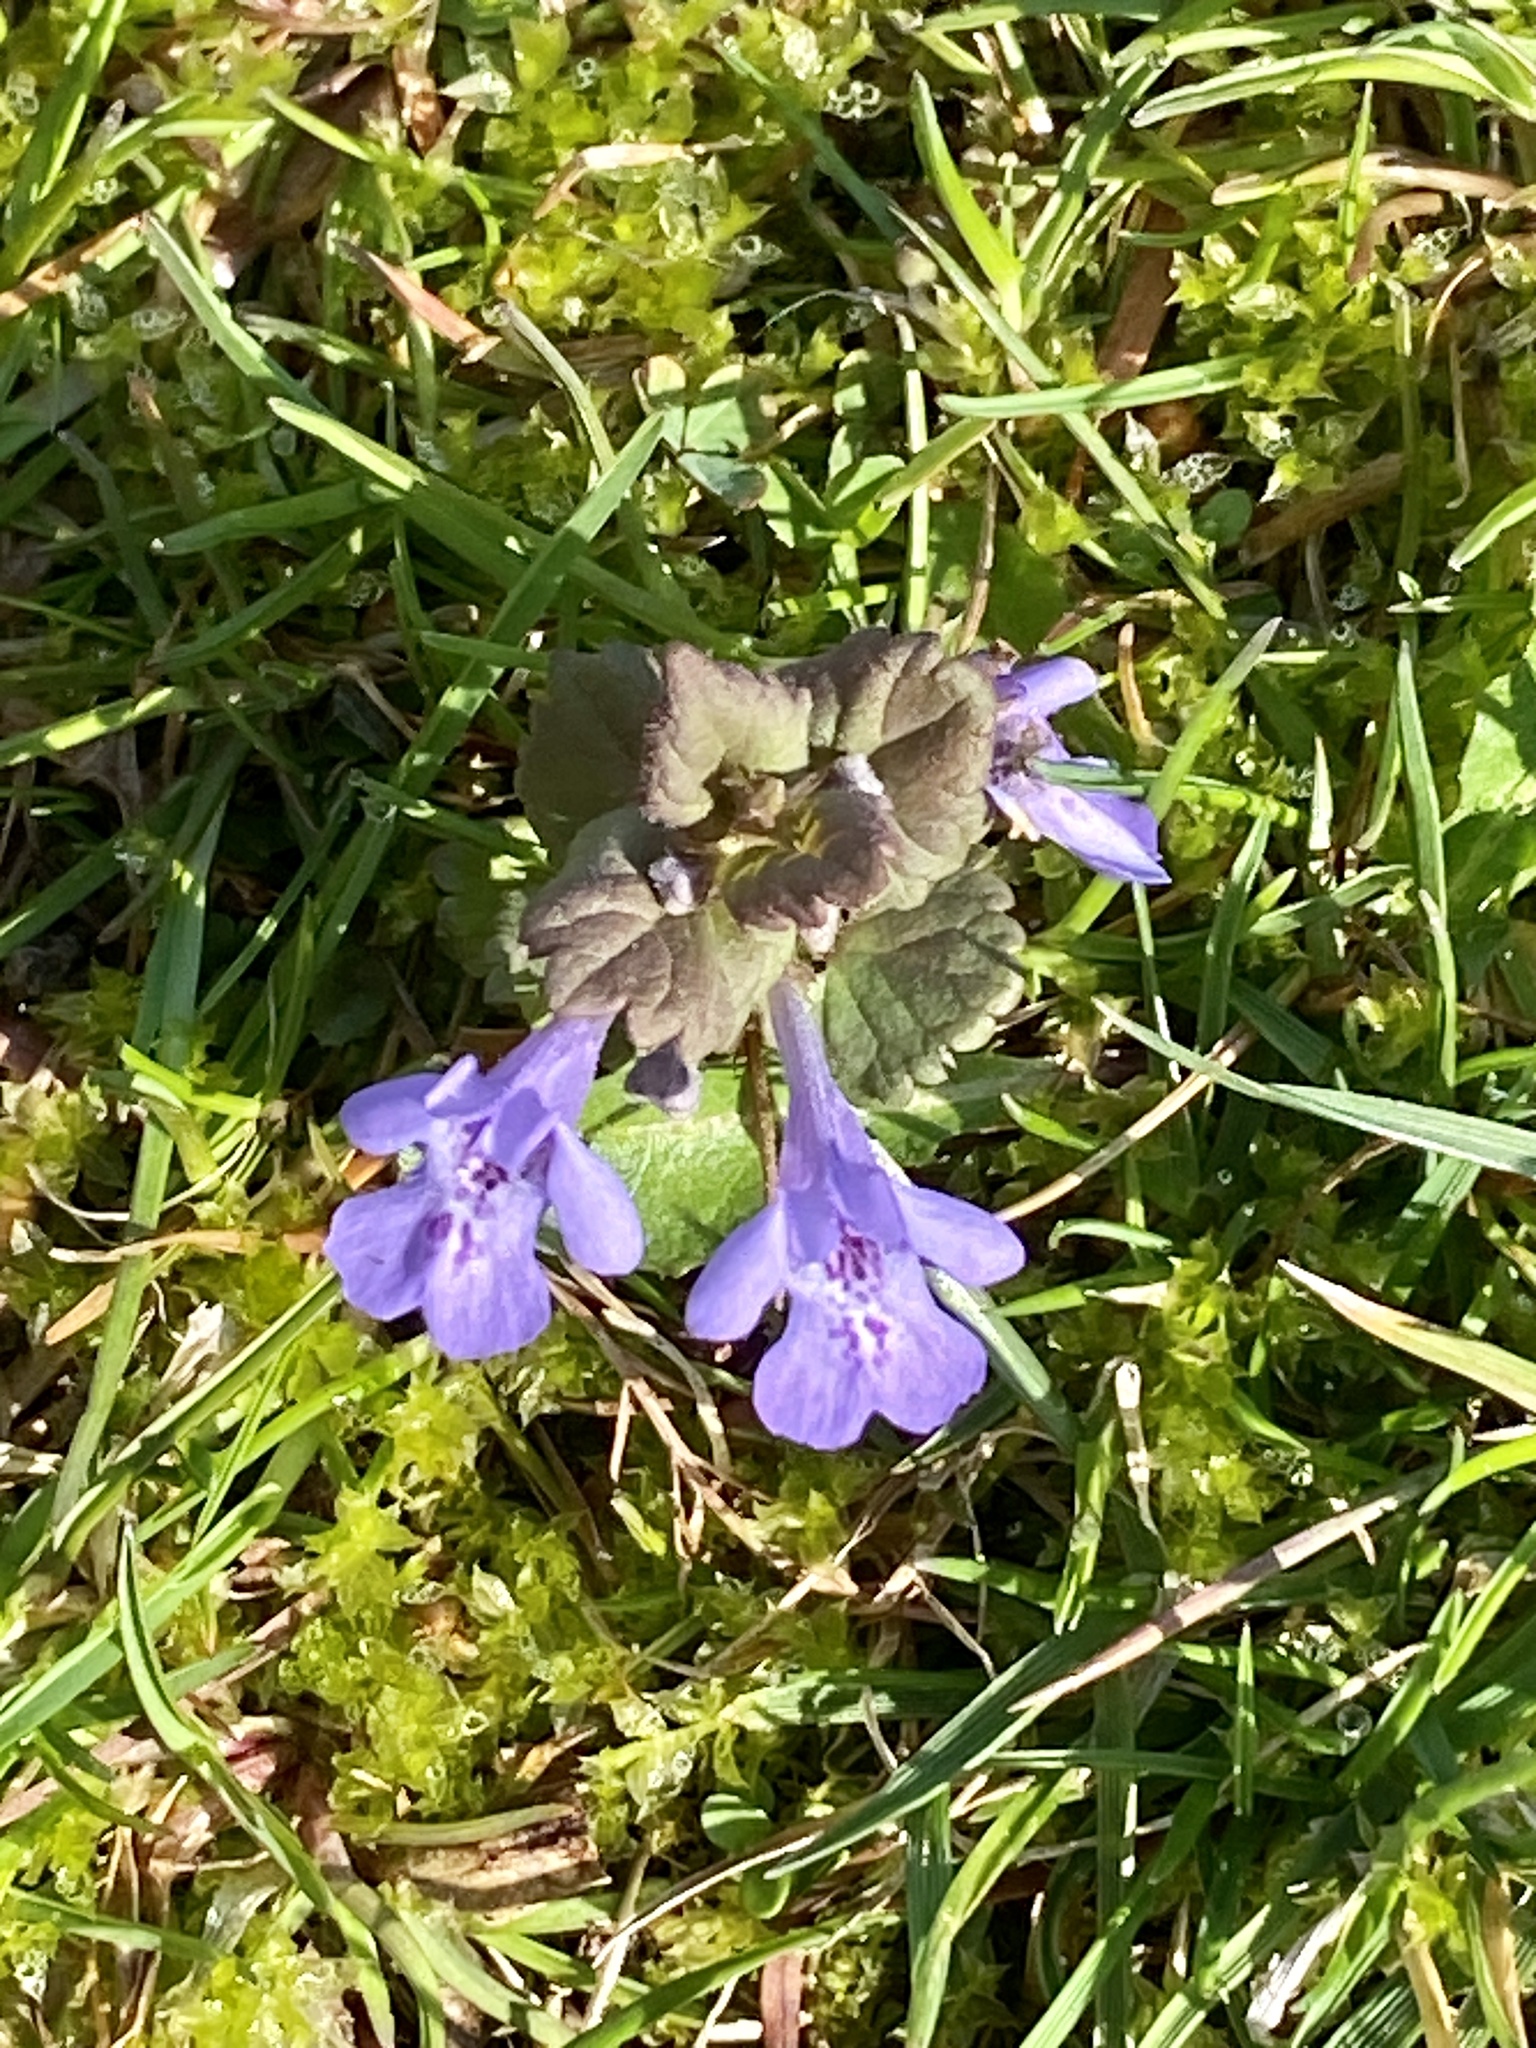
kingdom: Plantae
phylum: Tracheophyta
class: Magnoliopsida
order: Lamiales
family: Lamiaceae
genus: Glechoma
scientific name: Glechoma hederacea
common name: Ground ivy
